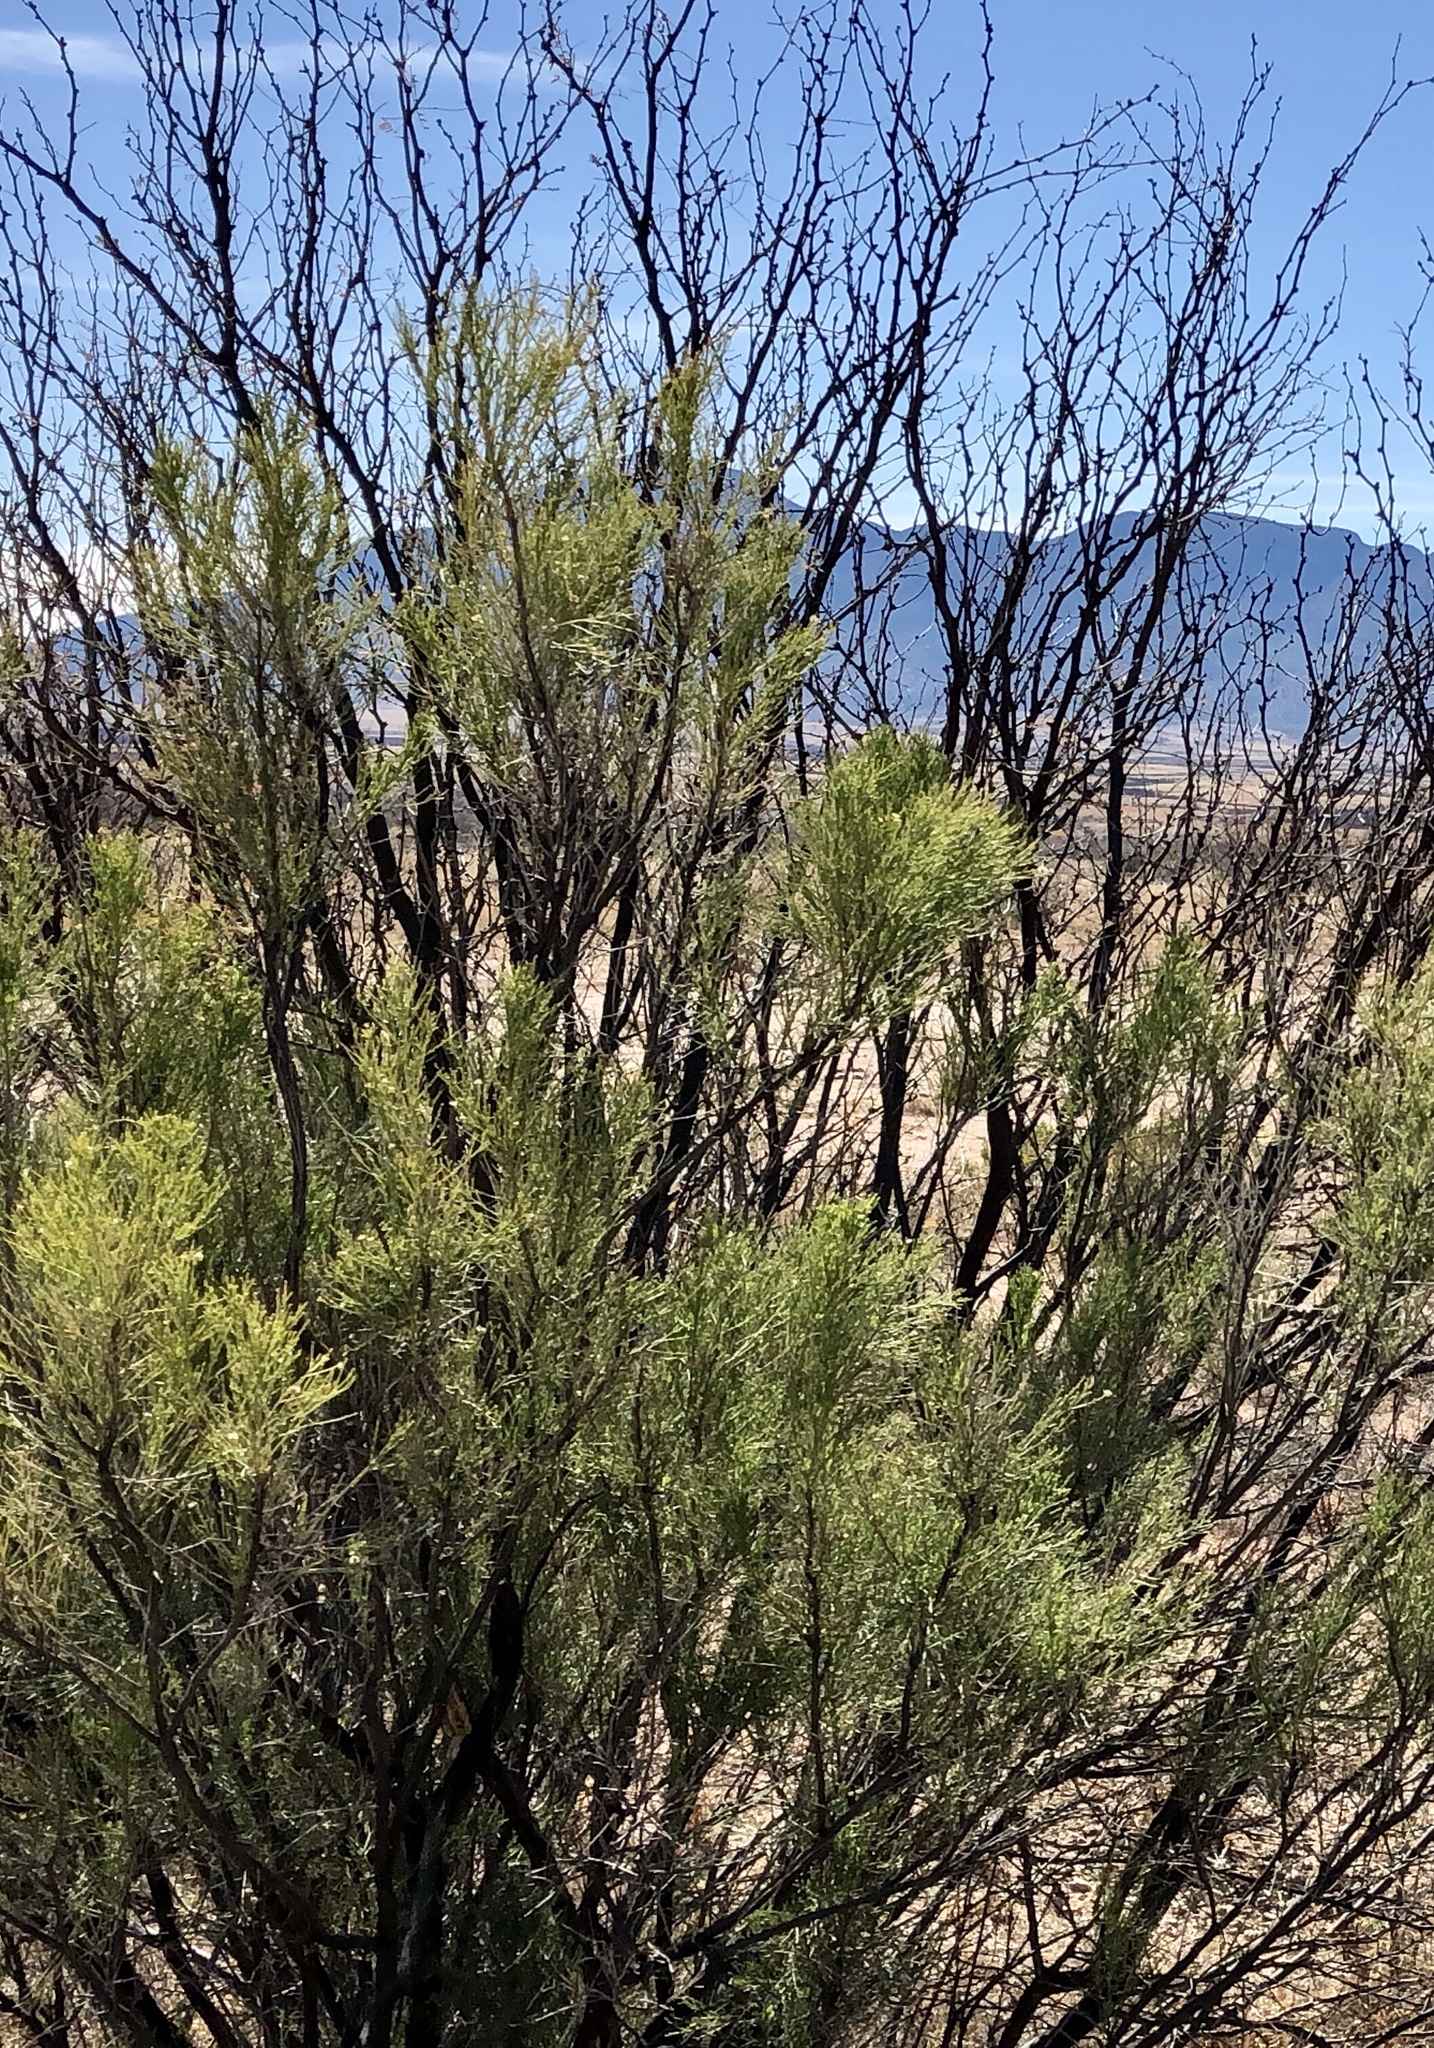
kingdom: Plantae
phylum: Tracheophyta
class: Magnoliopsida
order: Asterales
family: Asteraceae
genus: Baccharis
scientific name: Baccharis sarothroides
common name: Desert-broom
